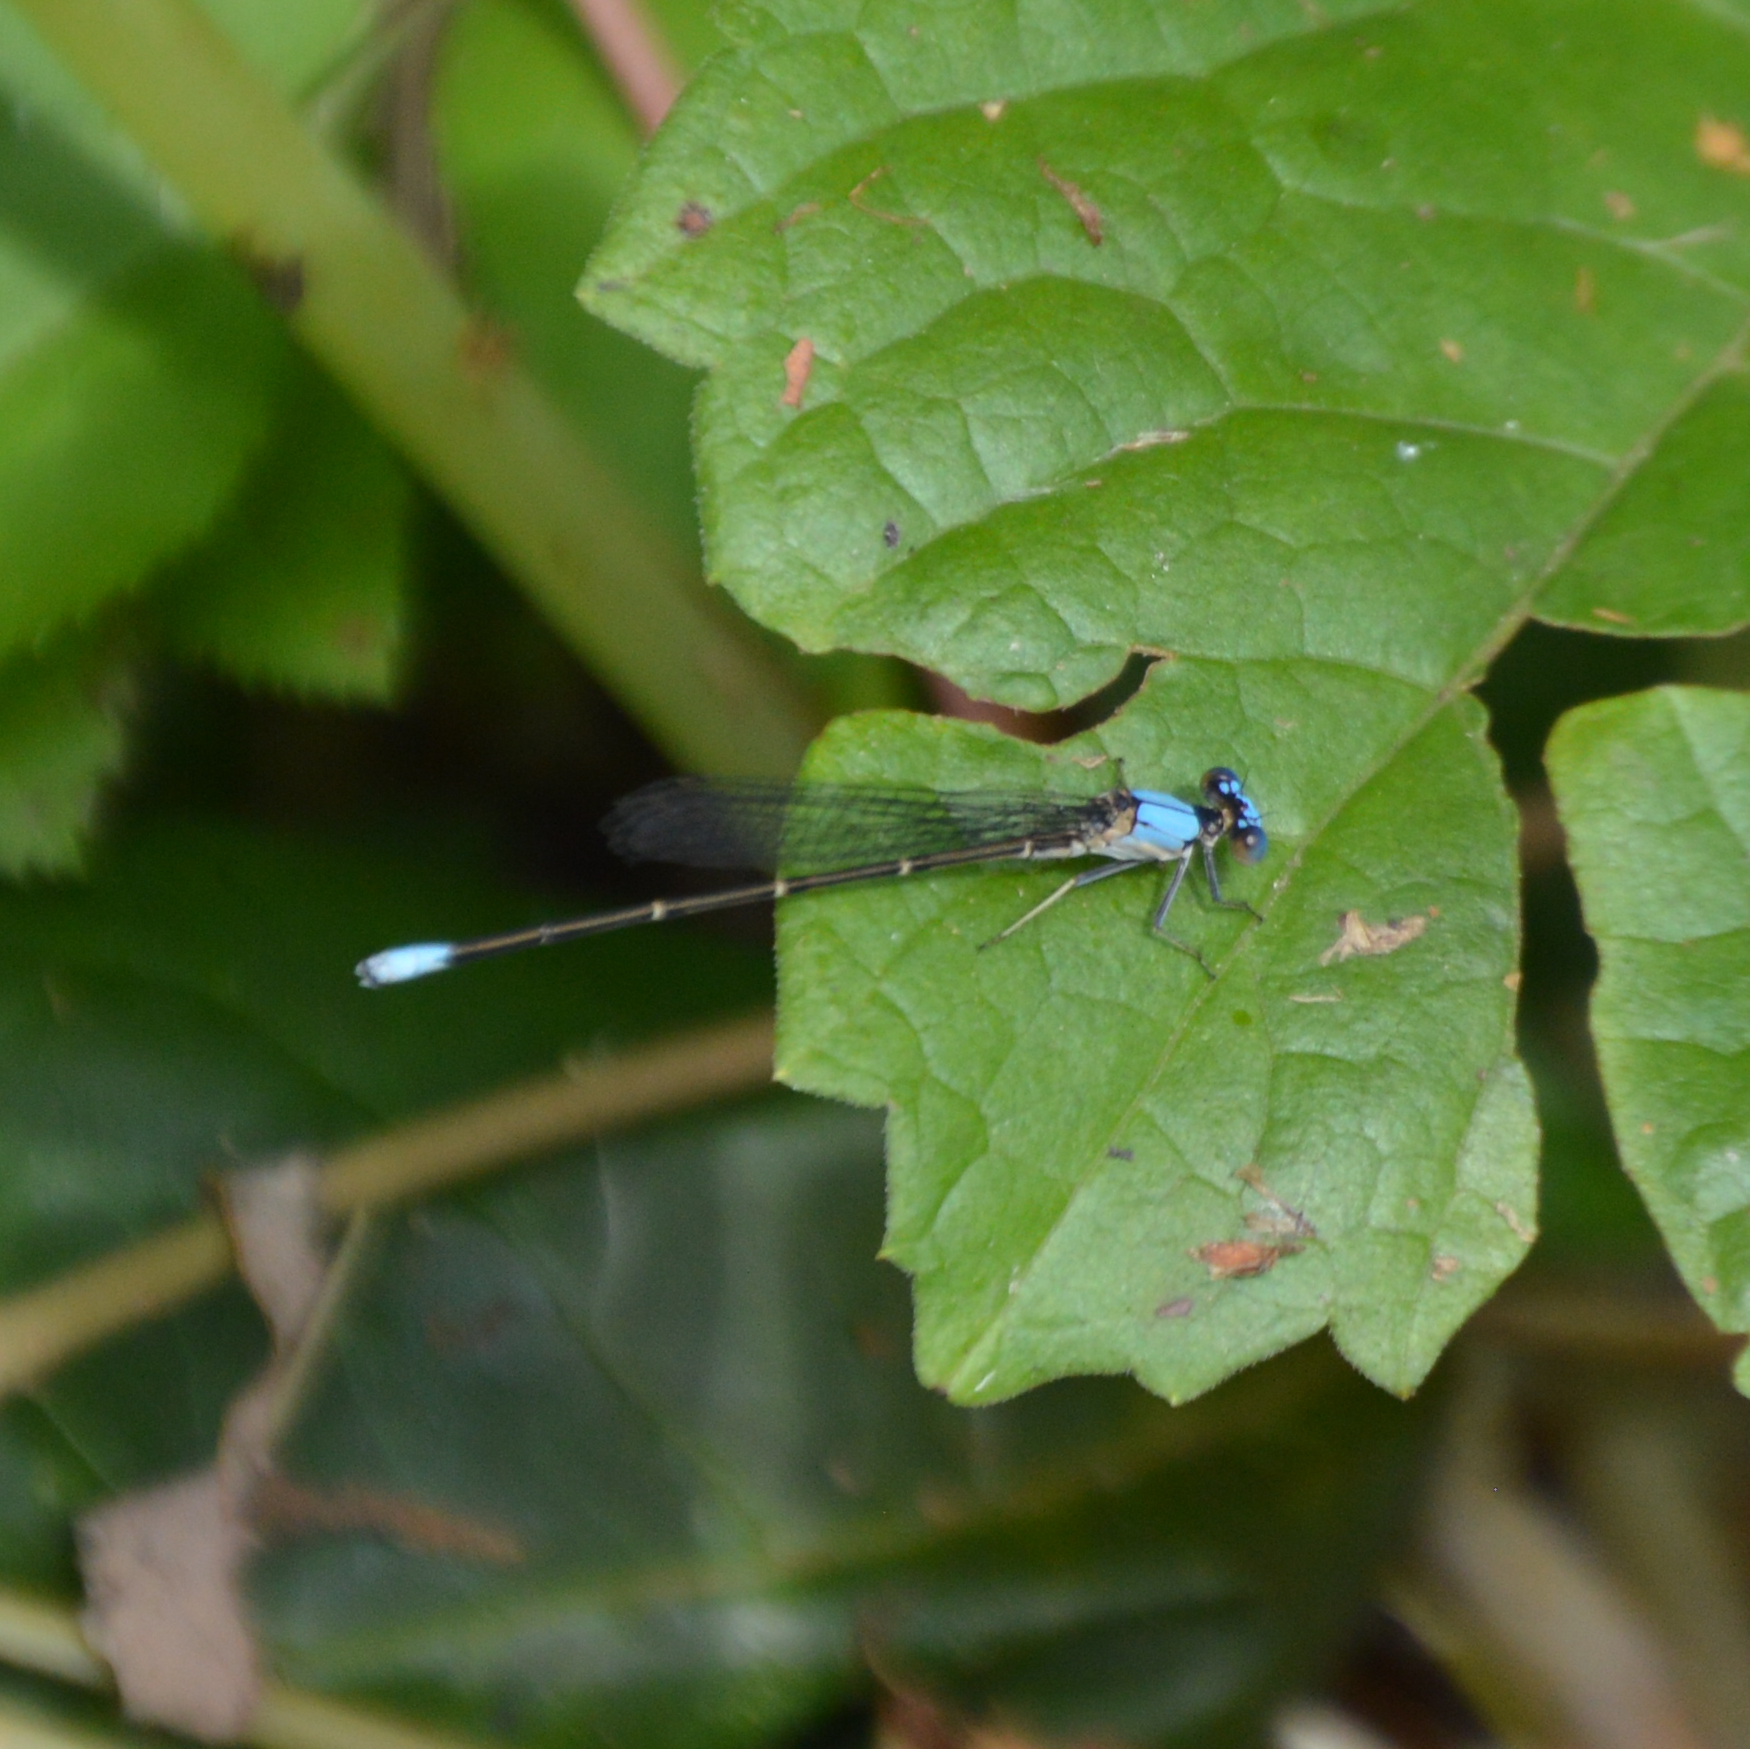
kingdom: Animalia
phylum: Arthropoda
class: Insecta
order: Odonata
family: Coenagrionidae
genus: Argia
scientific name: Argia apicalis
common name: Blue-fronted dancer
